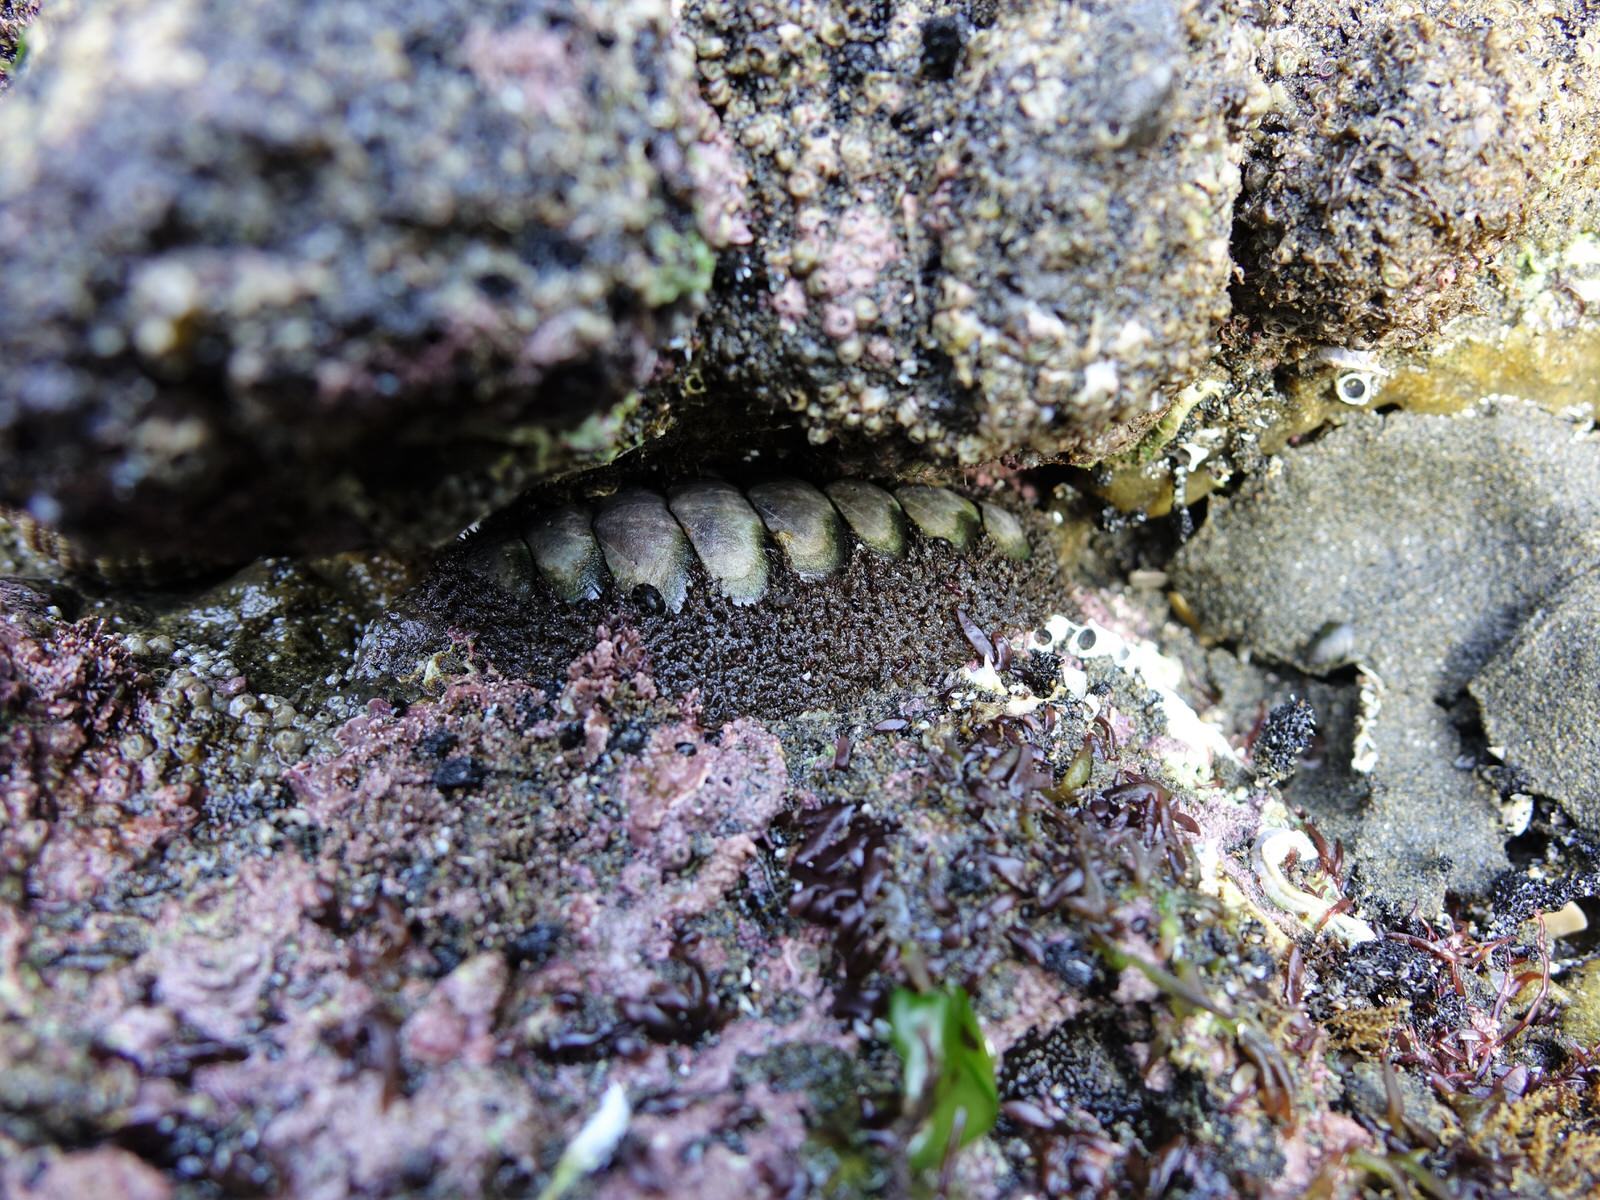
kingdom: Animalia
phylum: Mollusca
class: Polyplacophora
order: Chitonida
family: Mopaliidae
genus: Plaxiphora
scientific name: Plaxiphora obtecta
